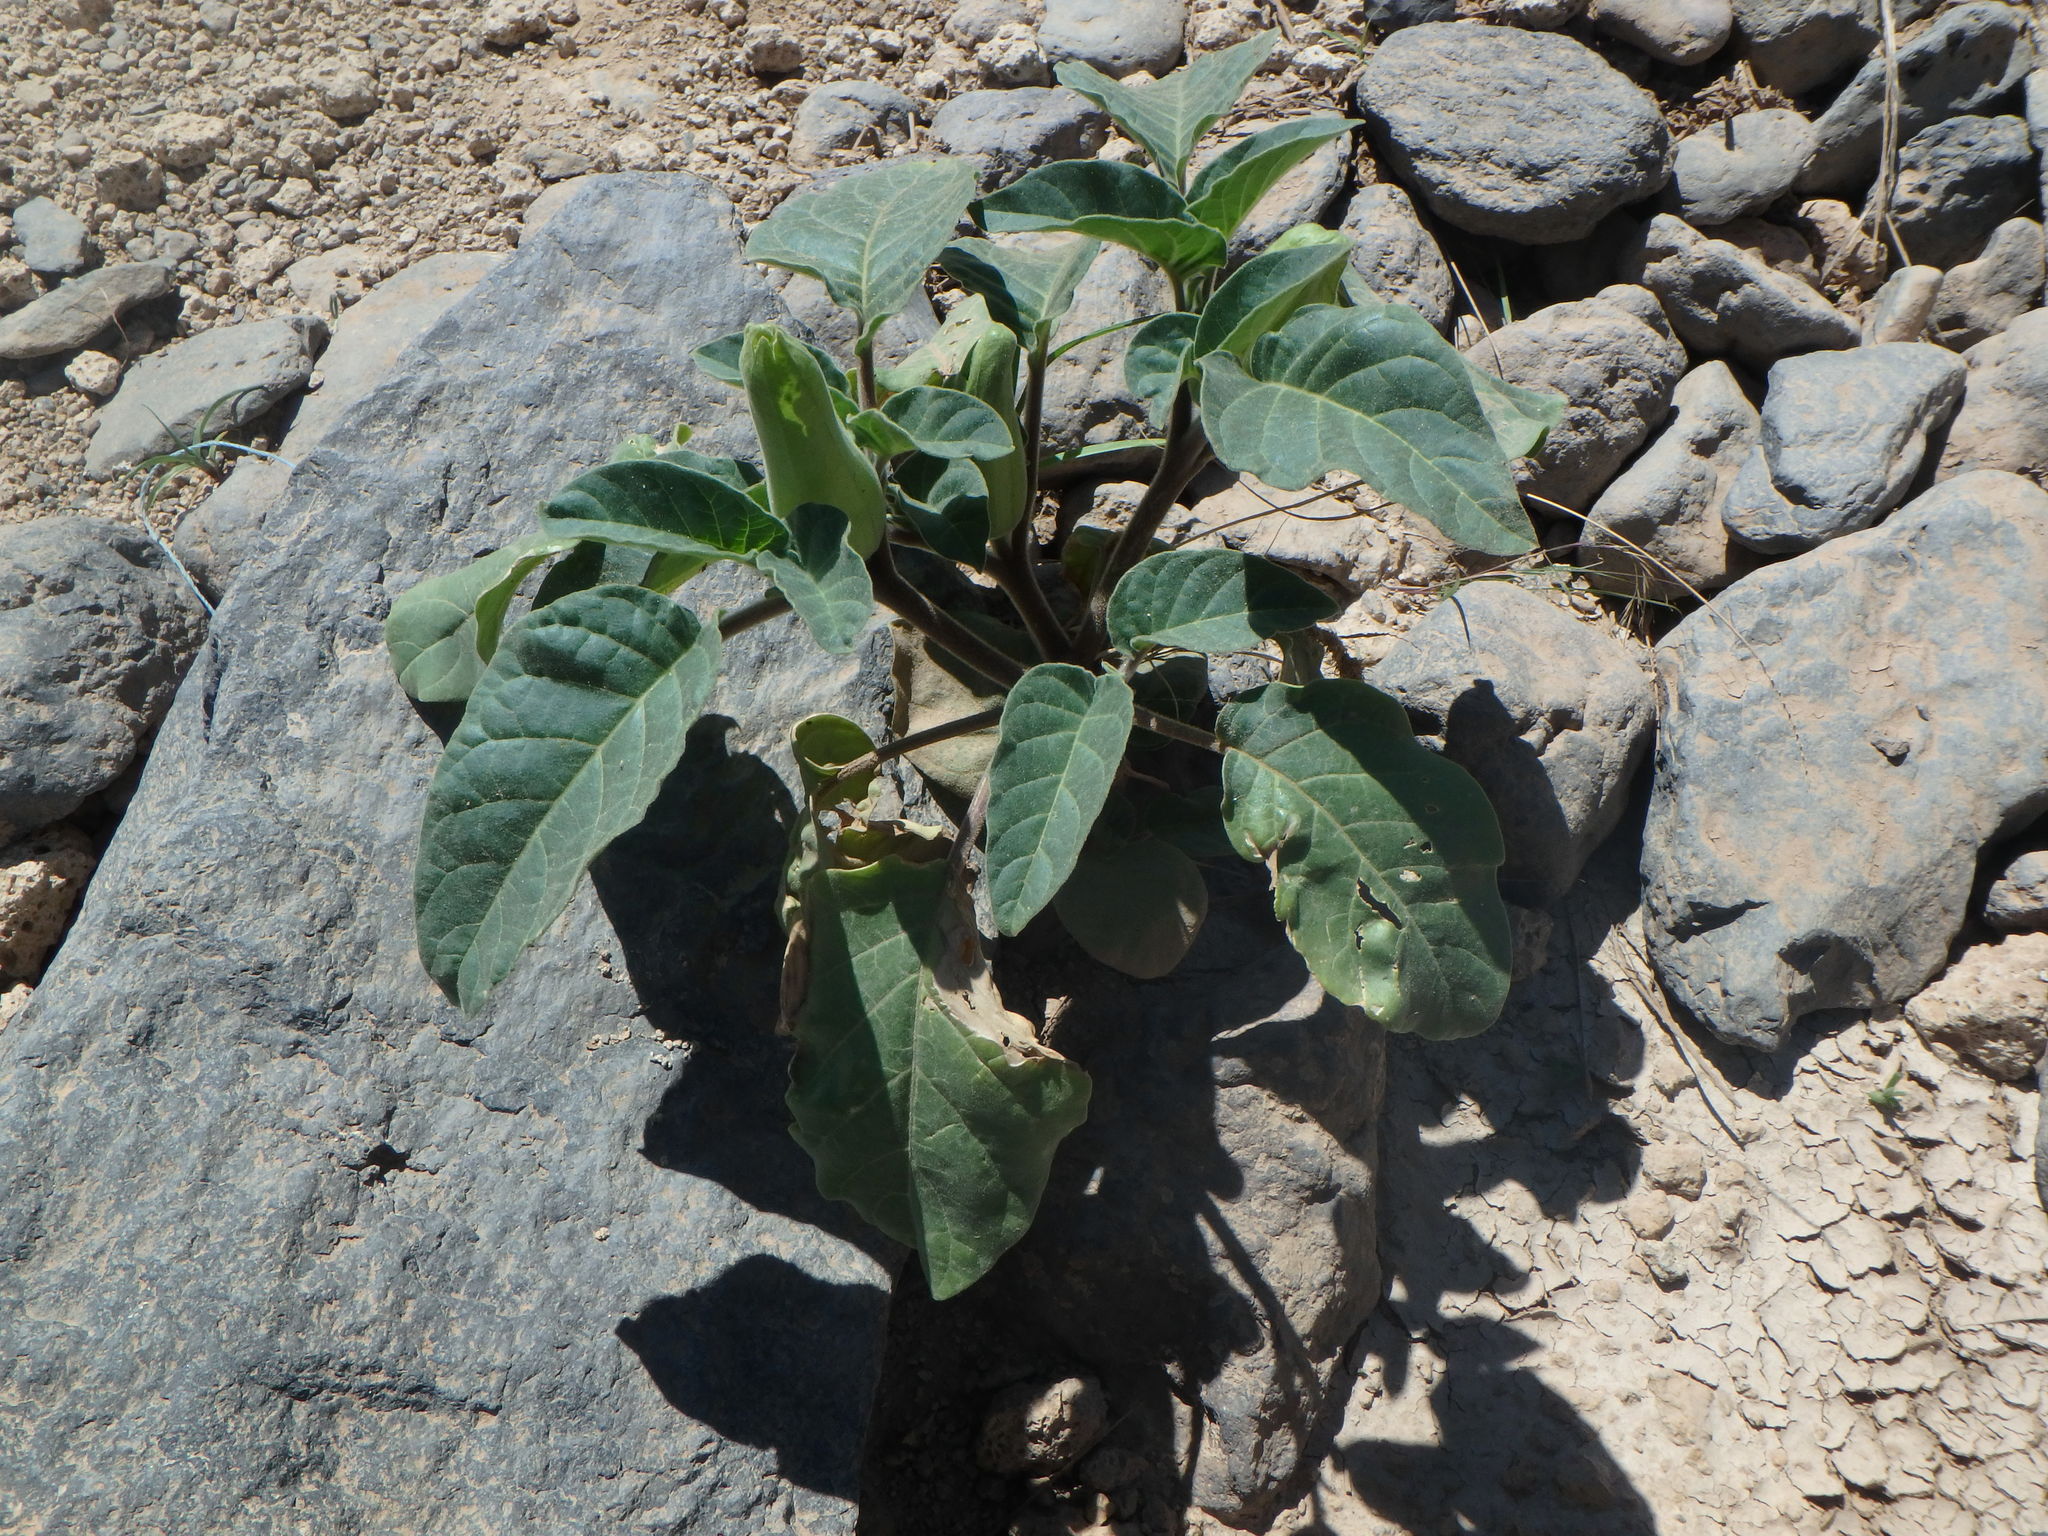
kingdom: Plantae
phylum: Tracheophyta
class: Magnoliopsida
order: Solanales
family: Solanaceae
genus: Datura
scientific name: Datura innoxia
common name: Downy thorn-apple
